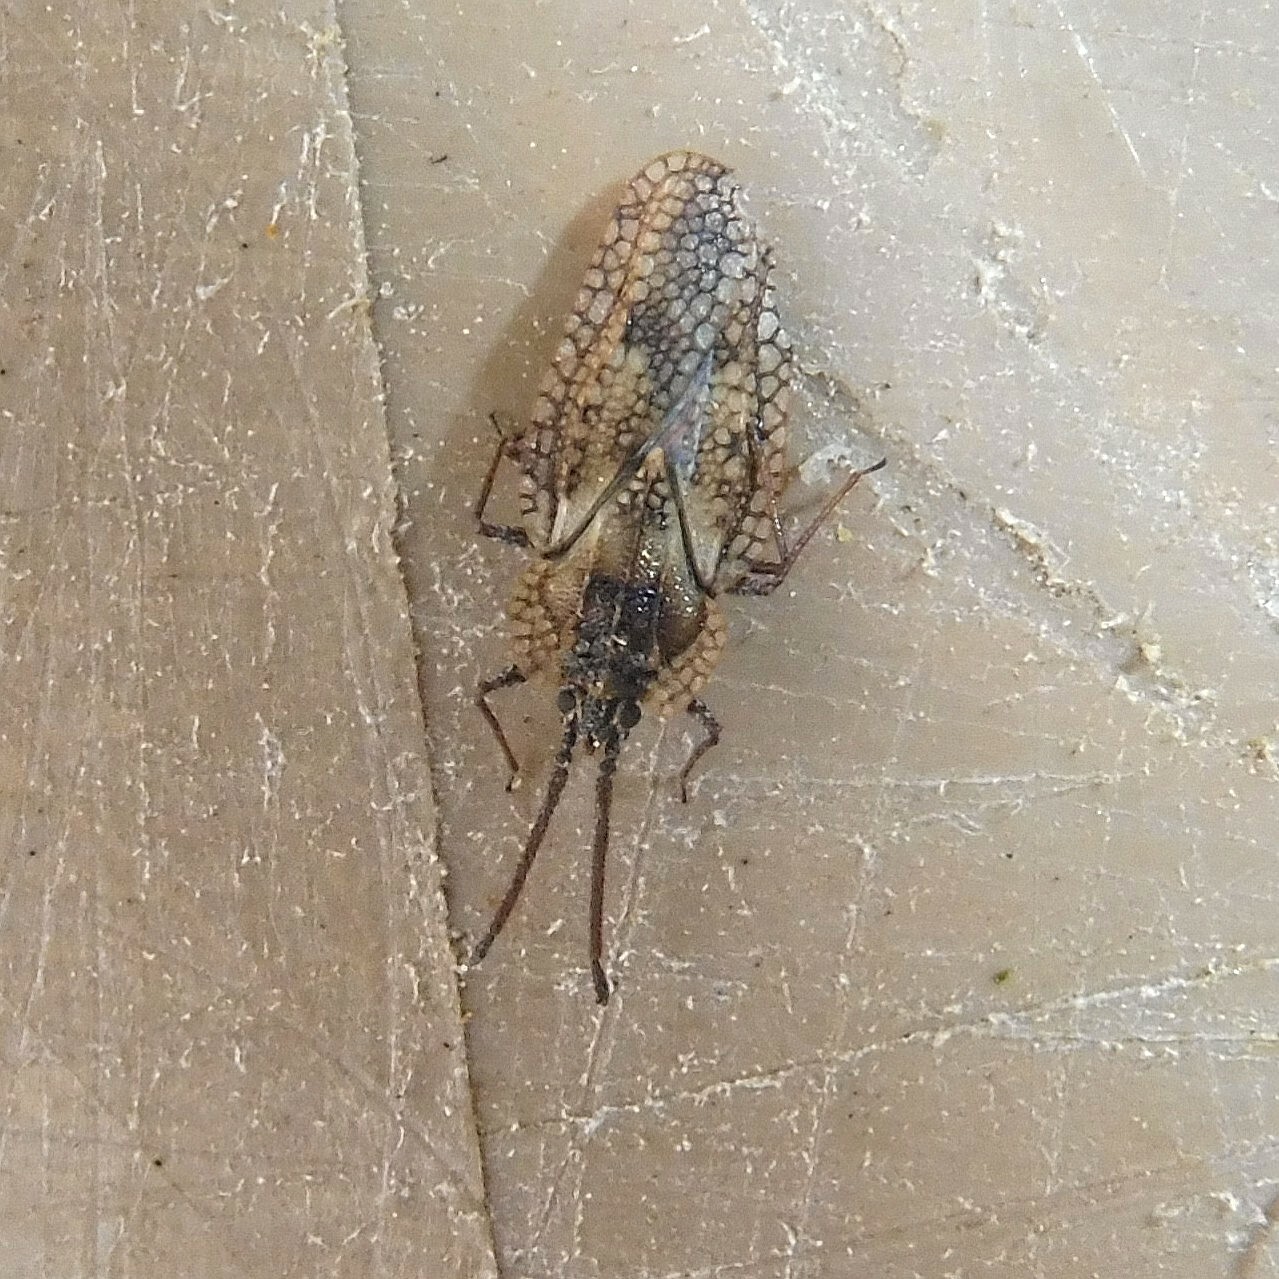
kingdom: Animalia
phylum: Arthropoda
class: Insecta
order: Hemiptera
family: Tingidae
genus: Dictyonota
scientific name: Dictyonota fuliginosa
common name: Lace bug
